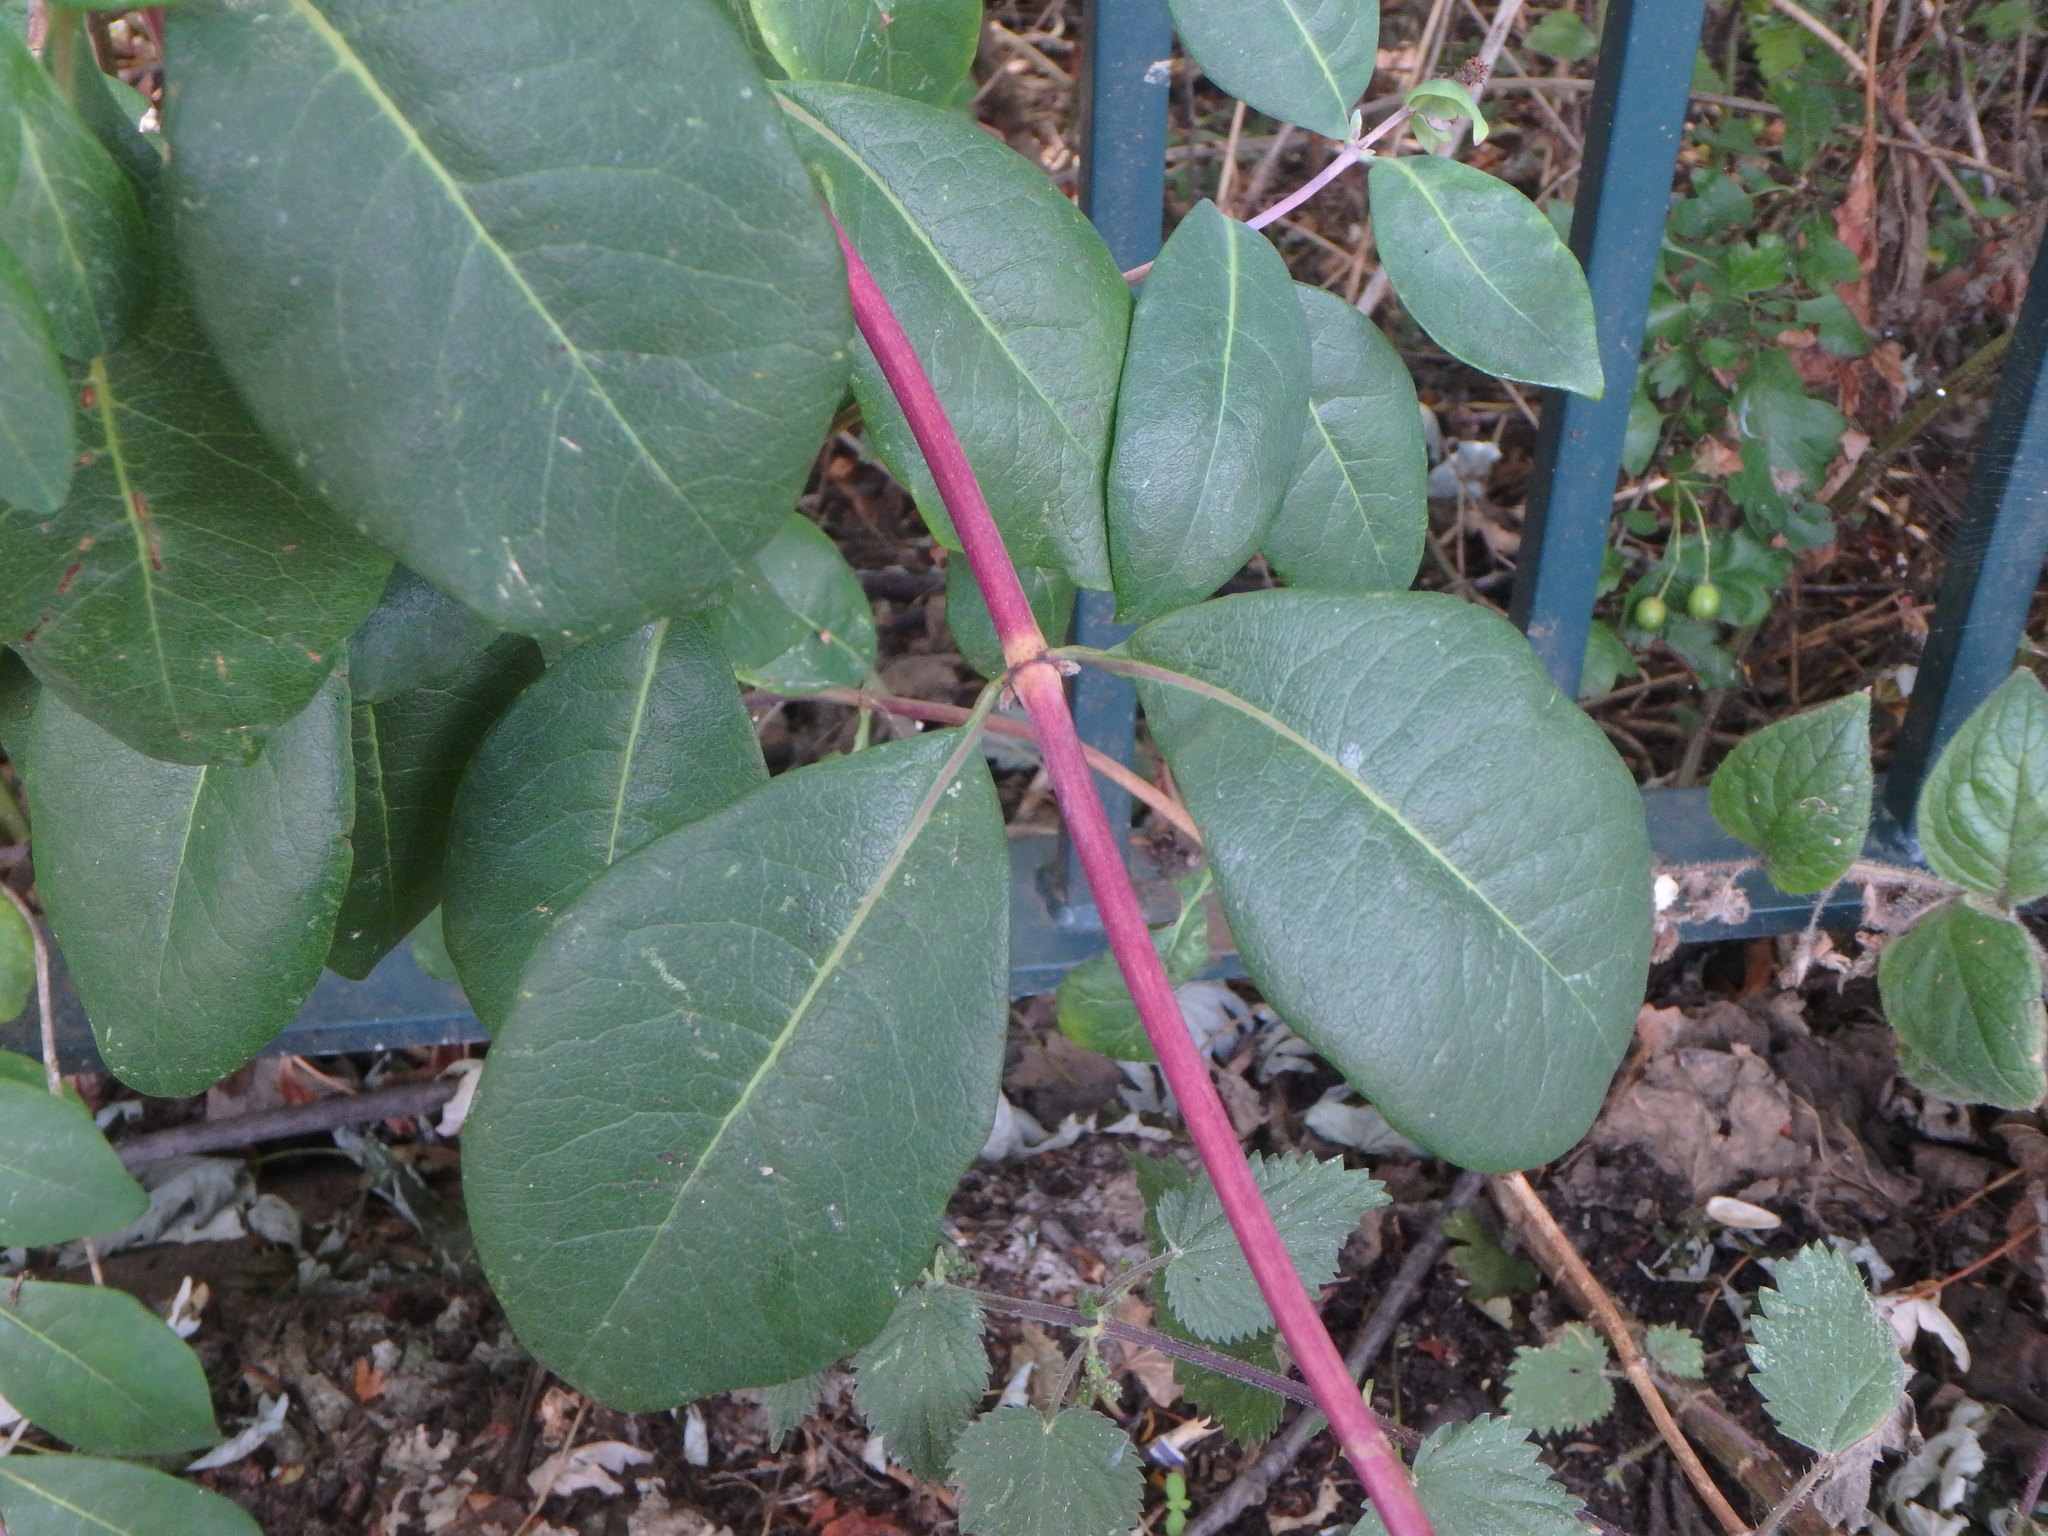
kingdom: Plantae
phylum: Tracheophyta
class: Magnoliopsida
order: Dipsacales
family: Caprifoliaceae
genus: Lonicera
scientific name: Lonicera periclymenum
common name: European honeysuckle
